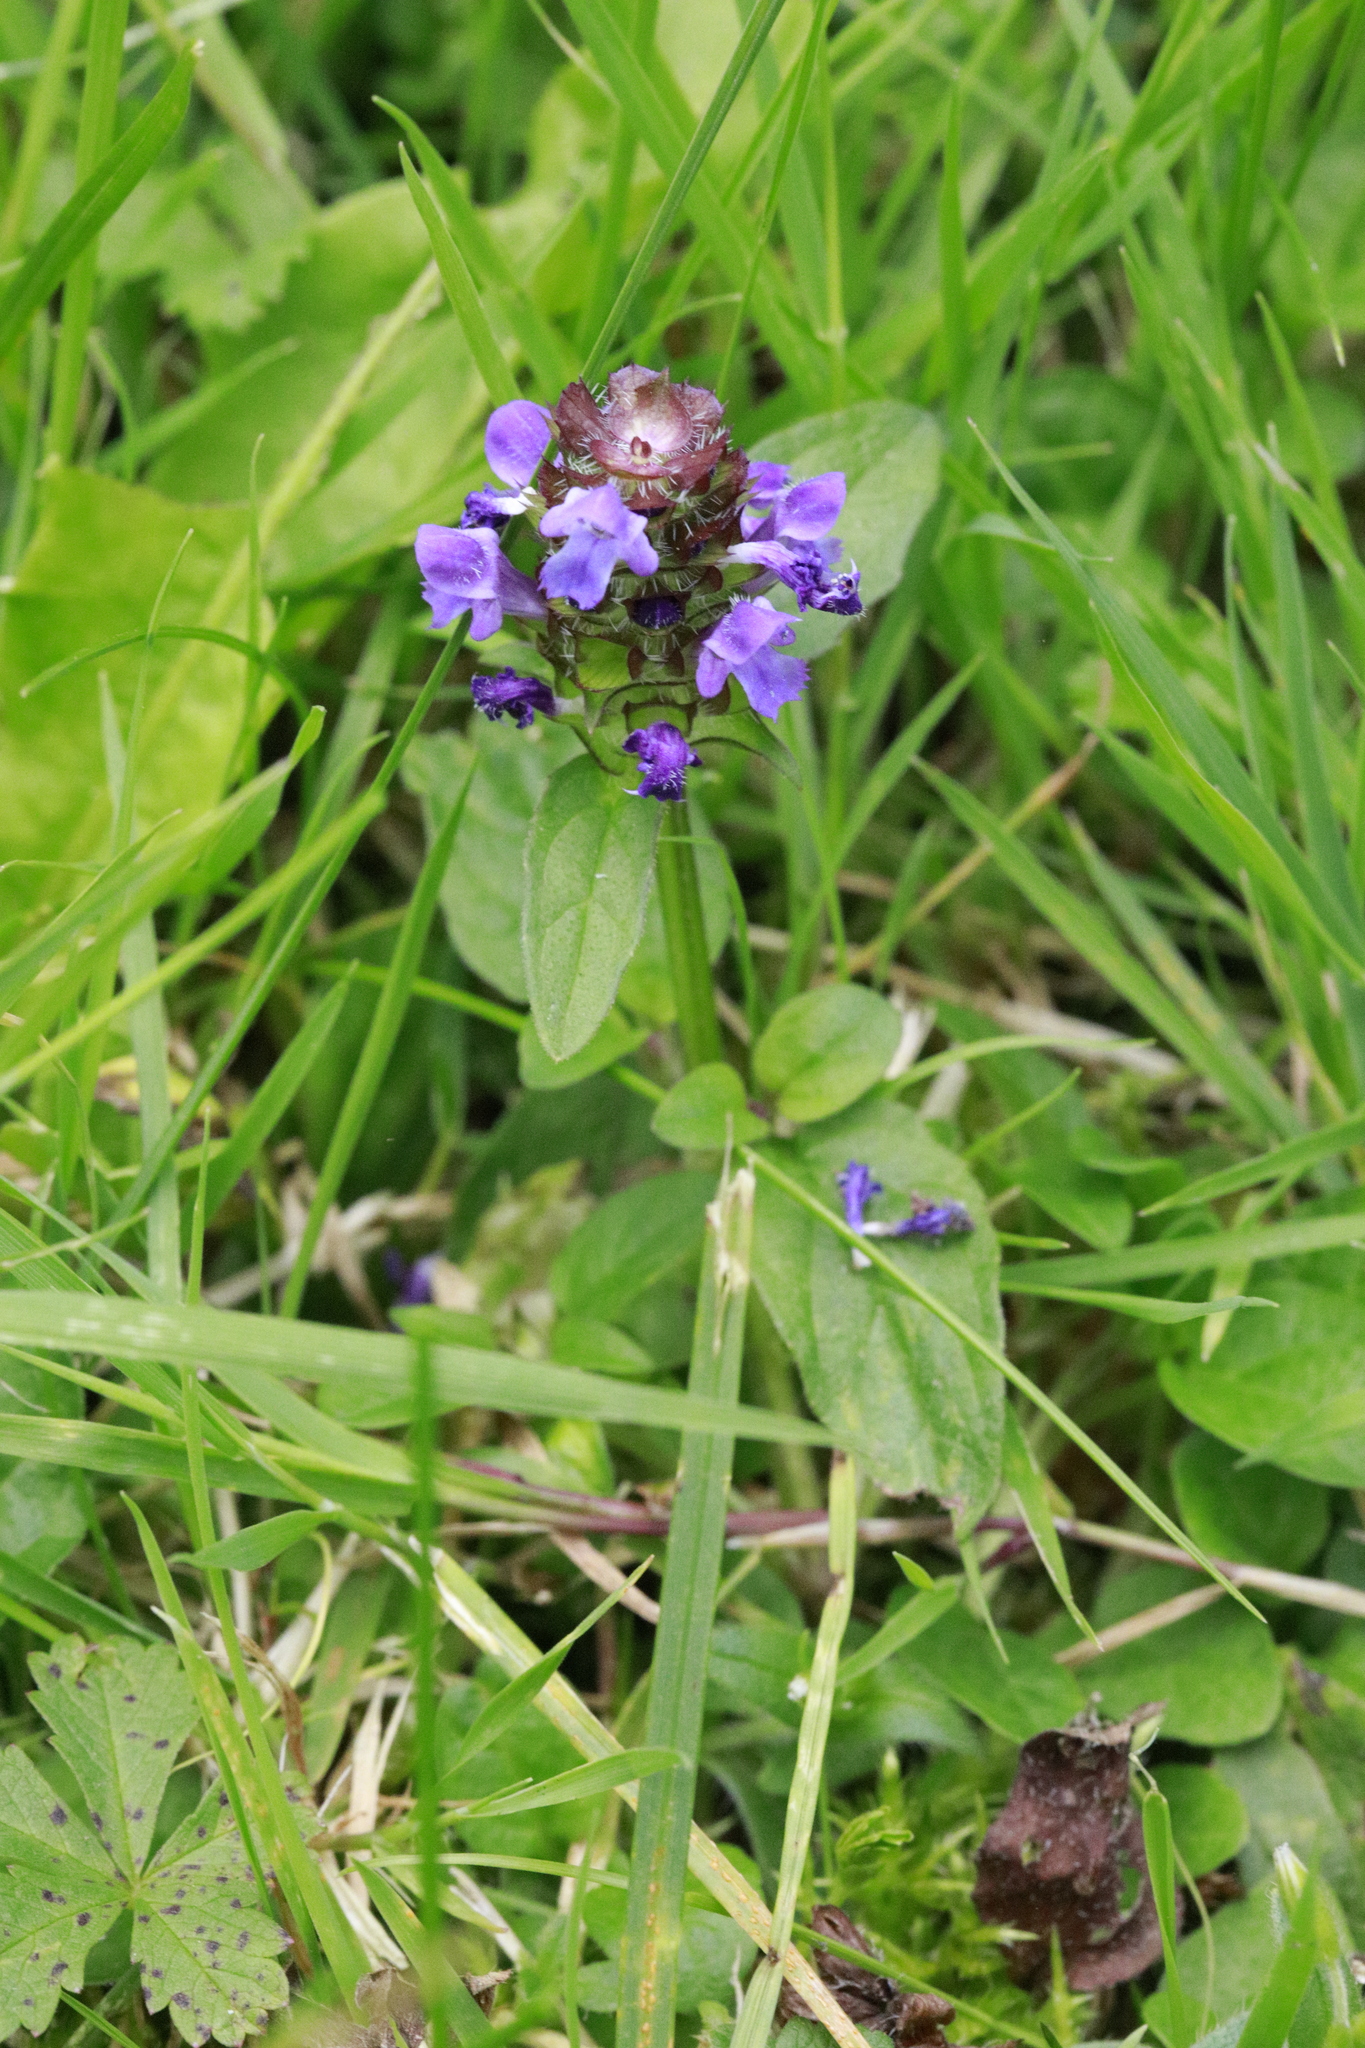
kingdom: Plantae
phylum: Tracheophyta
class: Magnoliopsida
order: Lamiales
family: Lamiaceae
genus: Prunella
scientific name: Prunella vulgaris
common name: Heal-all
